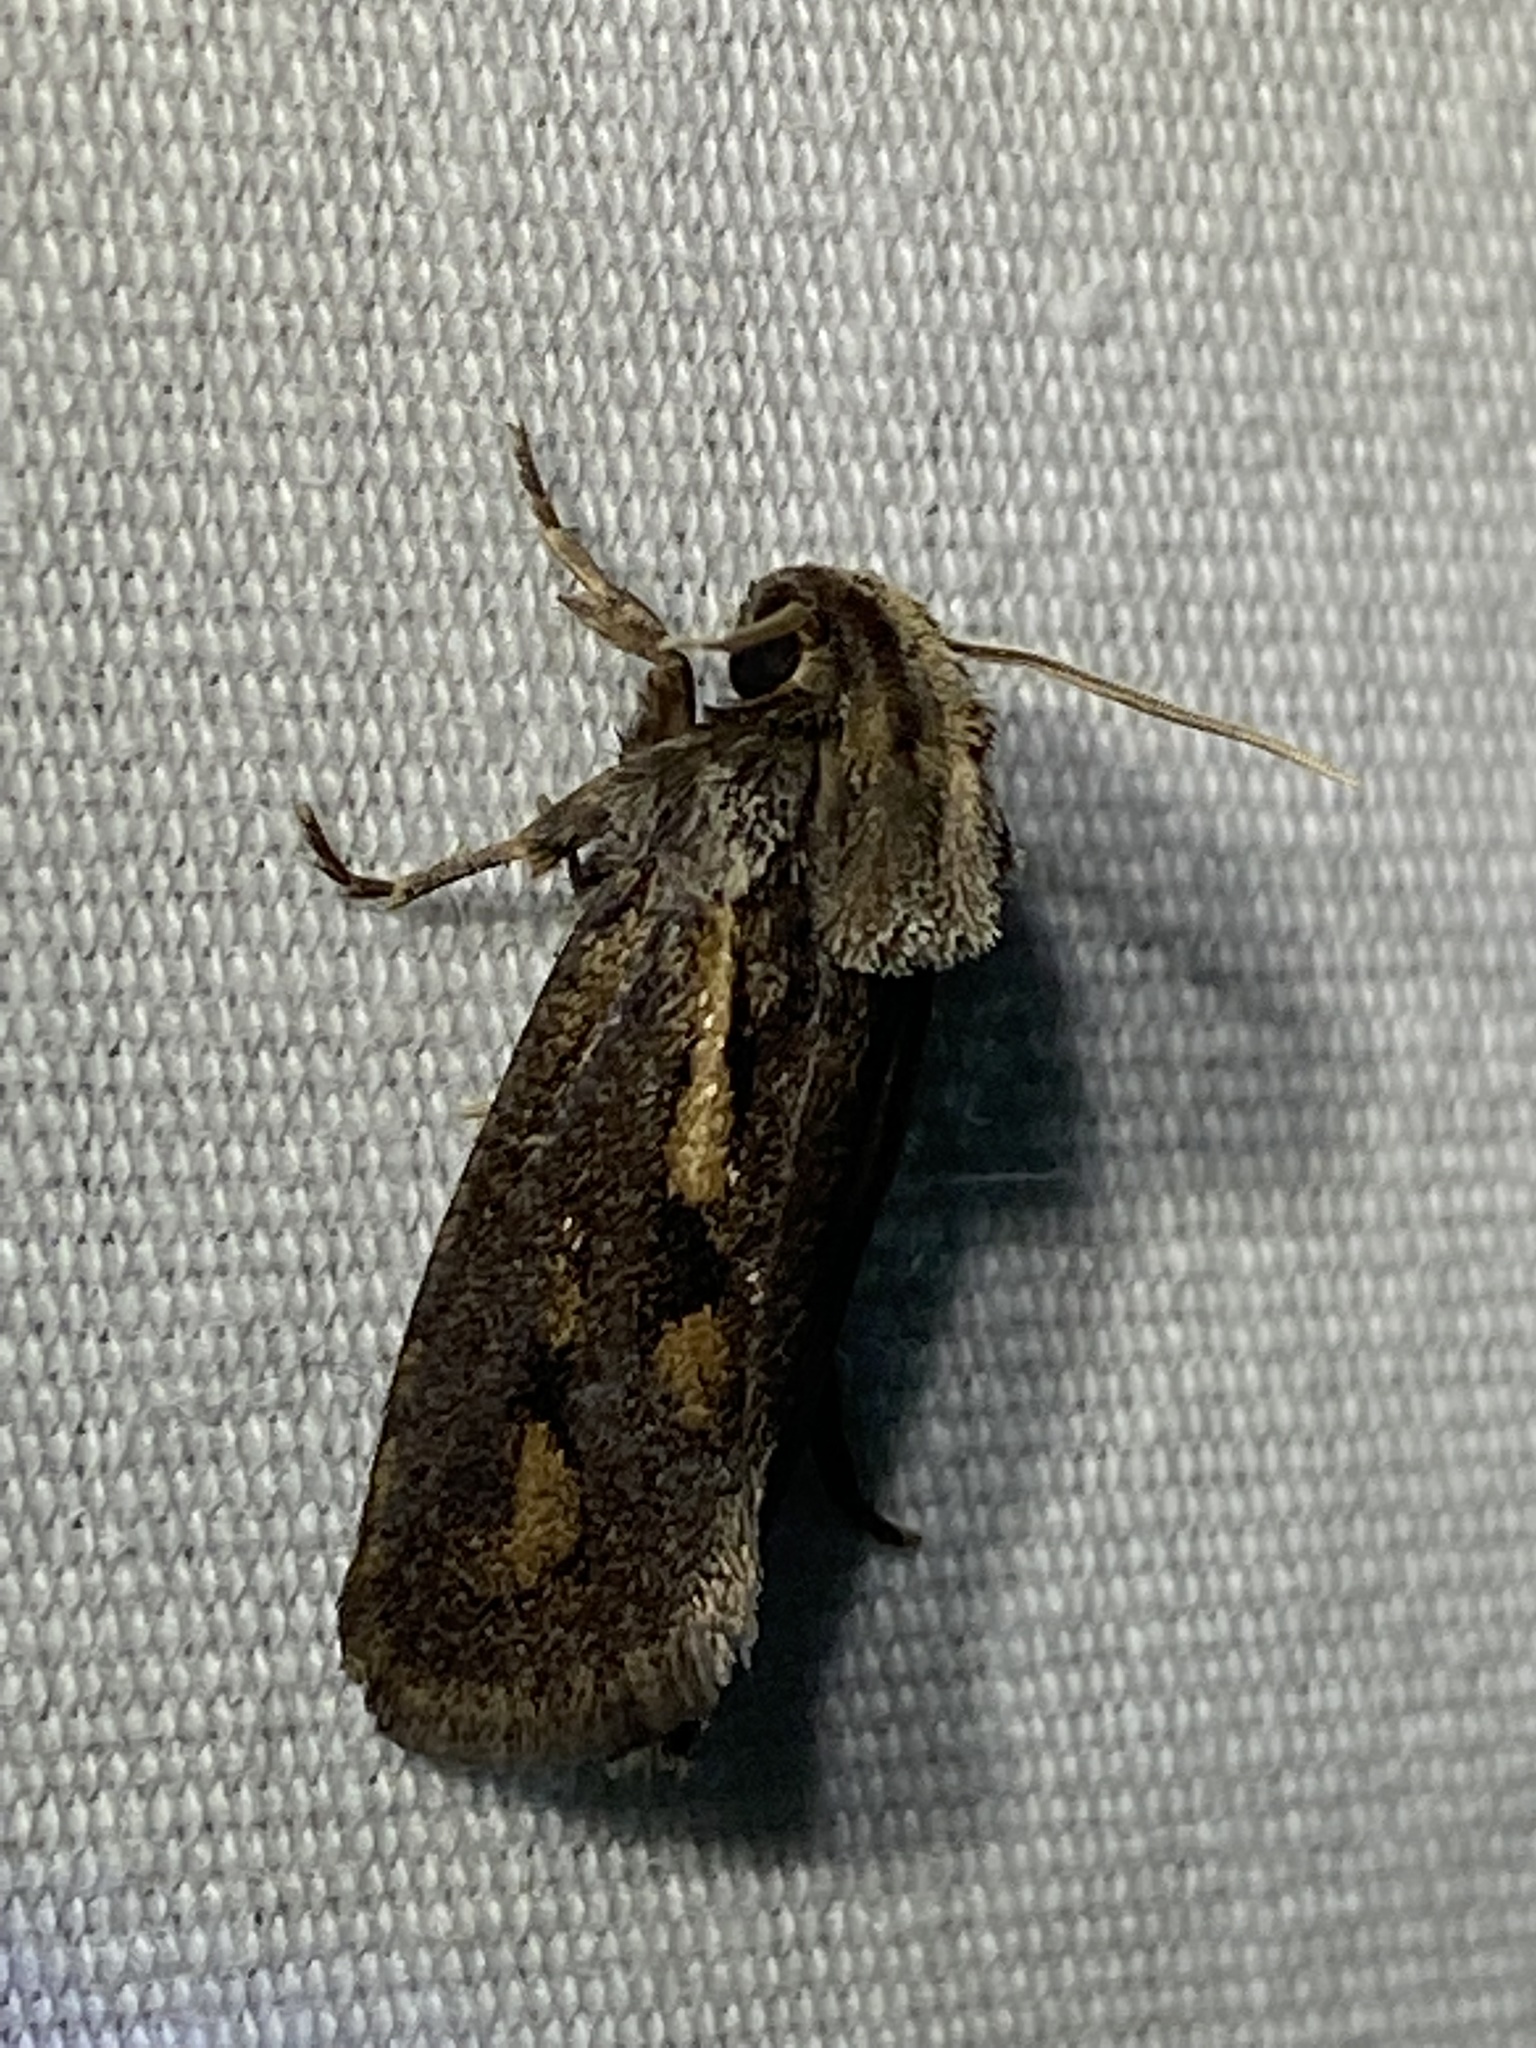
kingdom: Animalia
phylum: Arthropoda
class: Insecta
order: Lepidoptera
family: Tineidae
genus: Acrolophus
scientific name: Acrolophus popeanella
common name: Clemens' grass tubeworm moth
